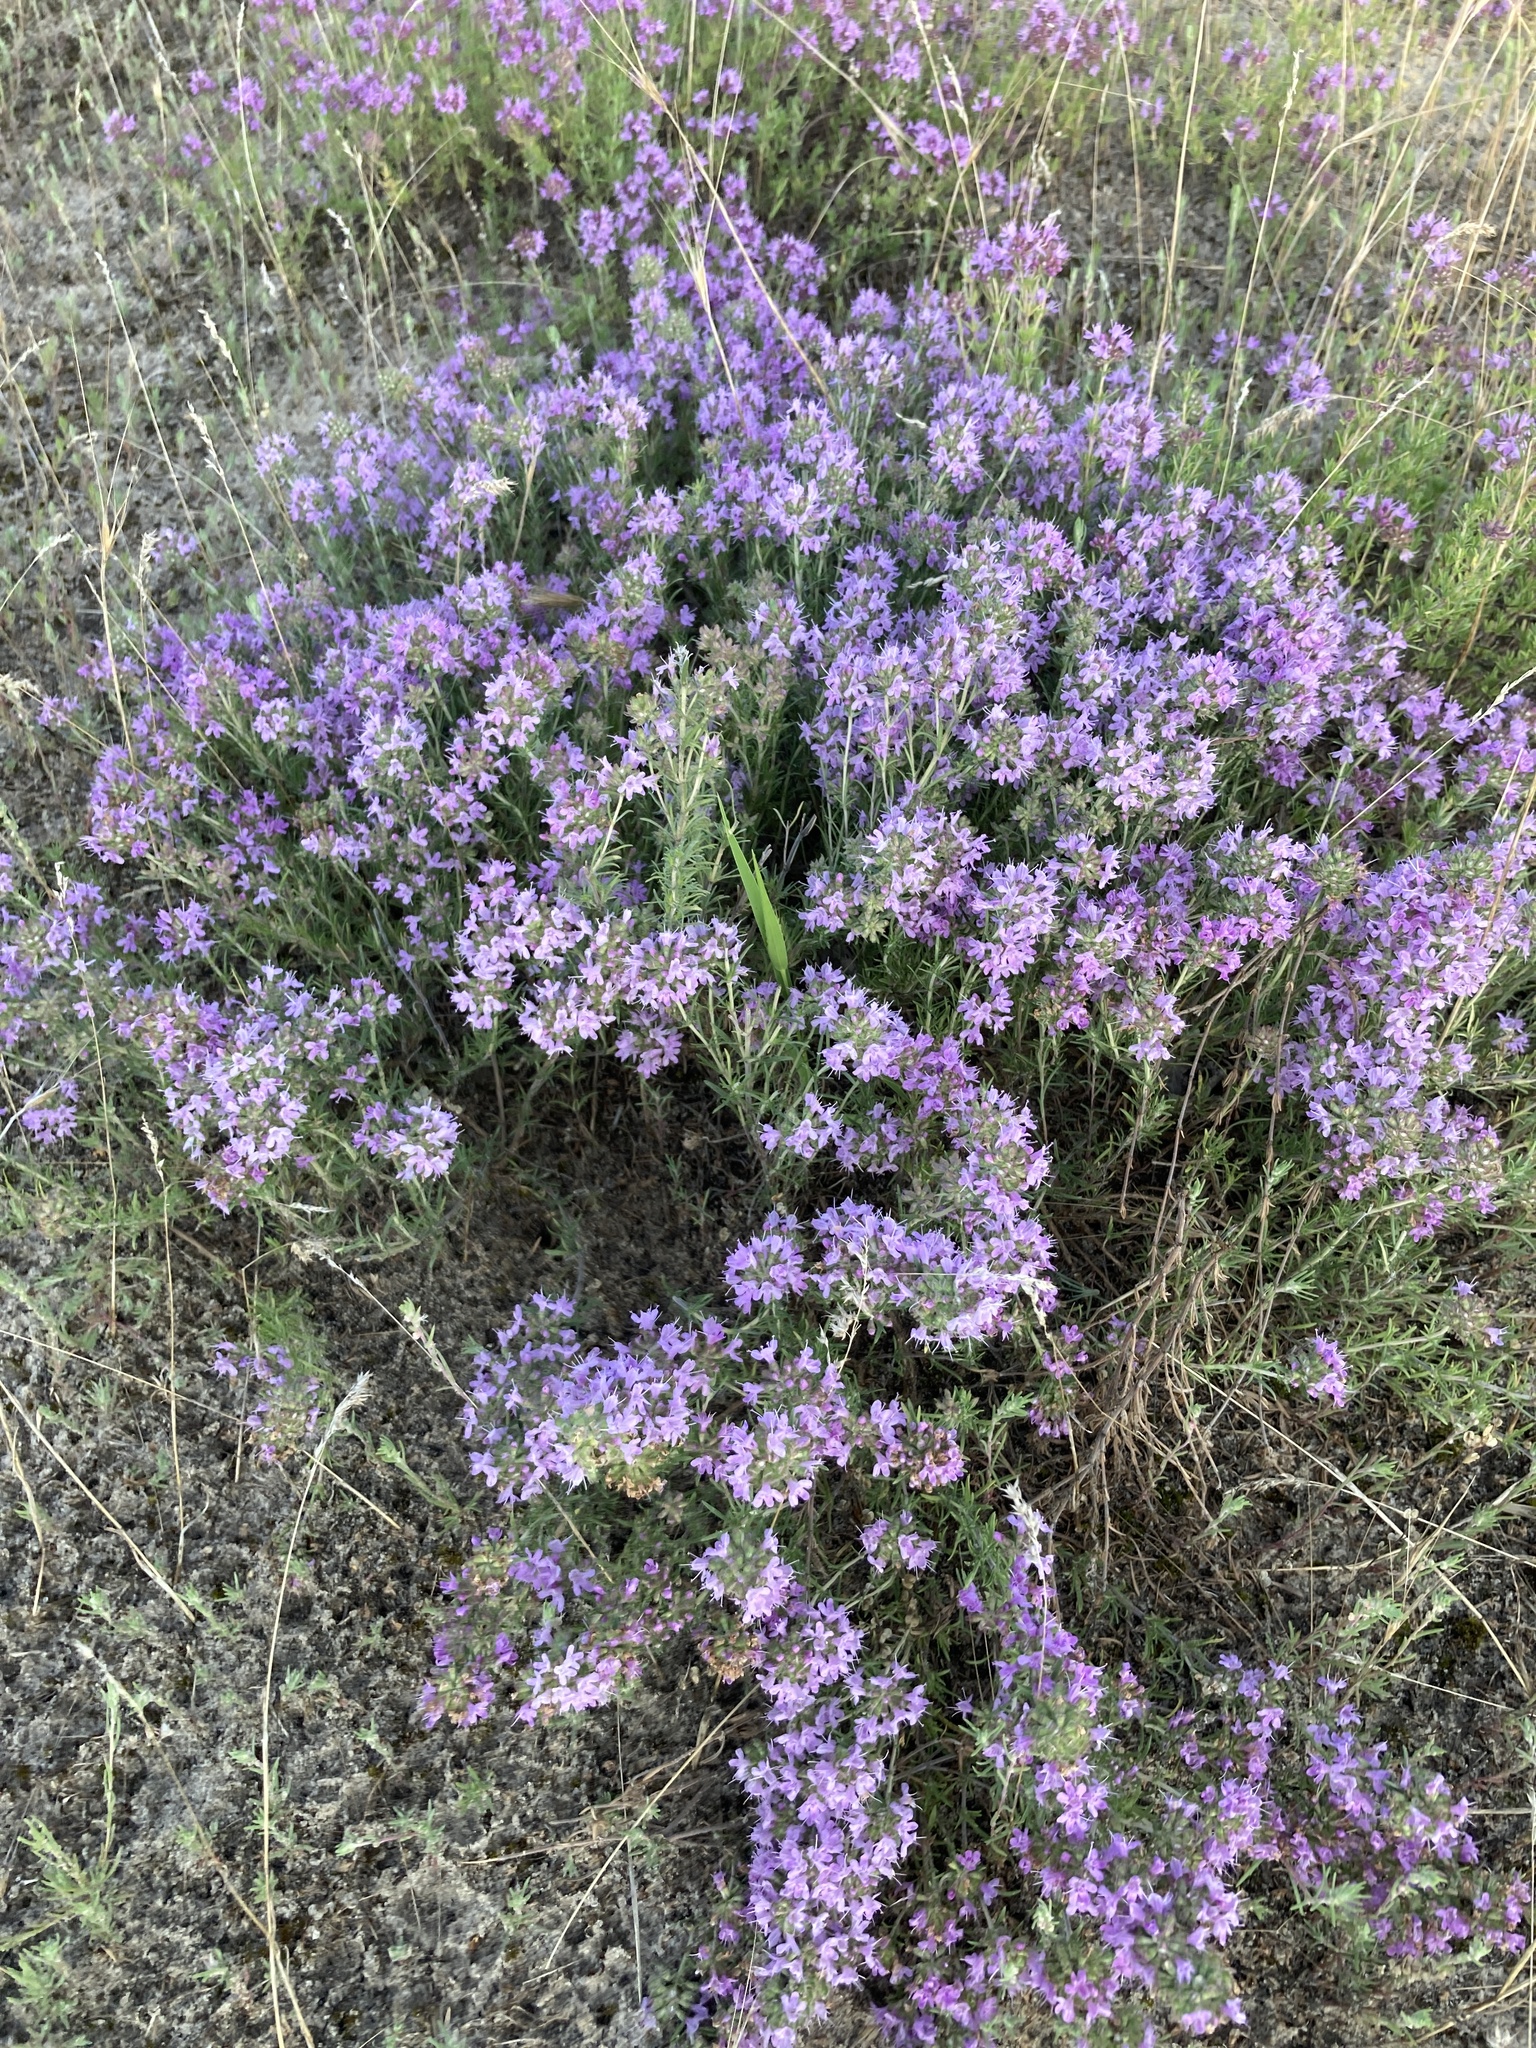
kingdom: Plantae
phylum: Tracheophyta
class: Magnoliopsida
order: Lamiales
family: Lamiaceae
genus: Thymus
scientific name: Thymus pallasianus
